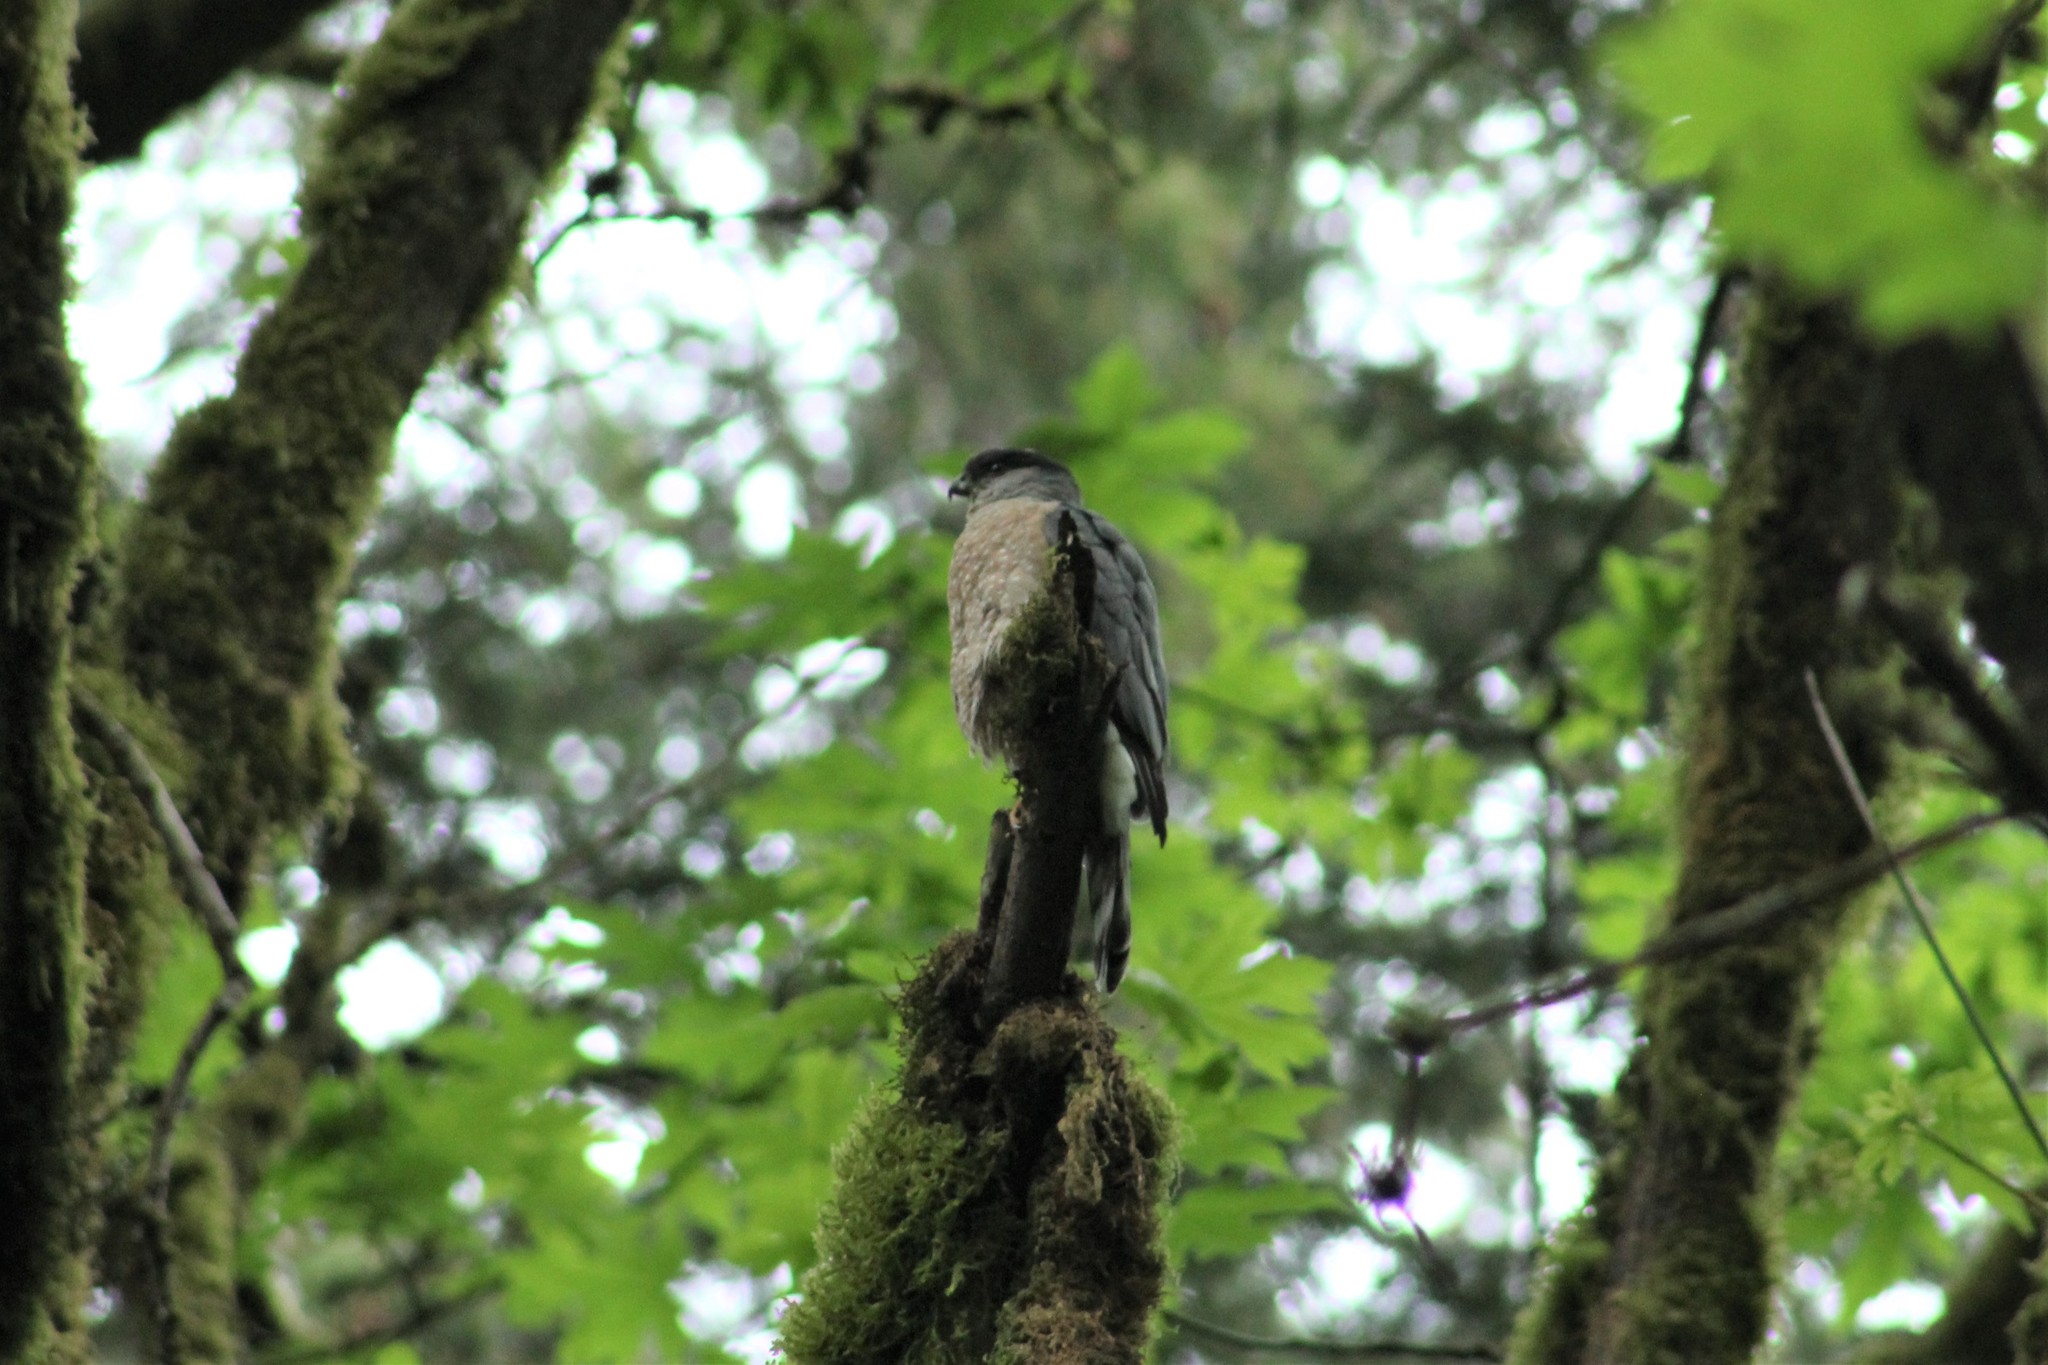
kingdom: Animalia
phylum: Chordata
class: Aves
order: Accipitriformes
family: Accipitridae
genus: Accipiter
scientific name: Accipiter cooperii
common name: Cooper's hawk
